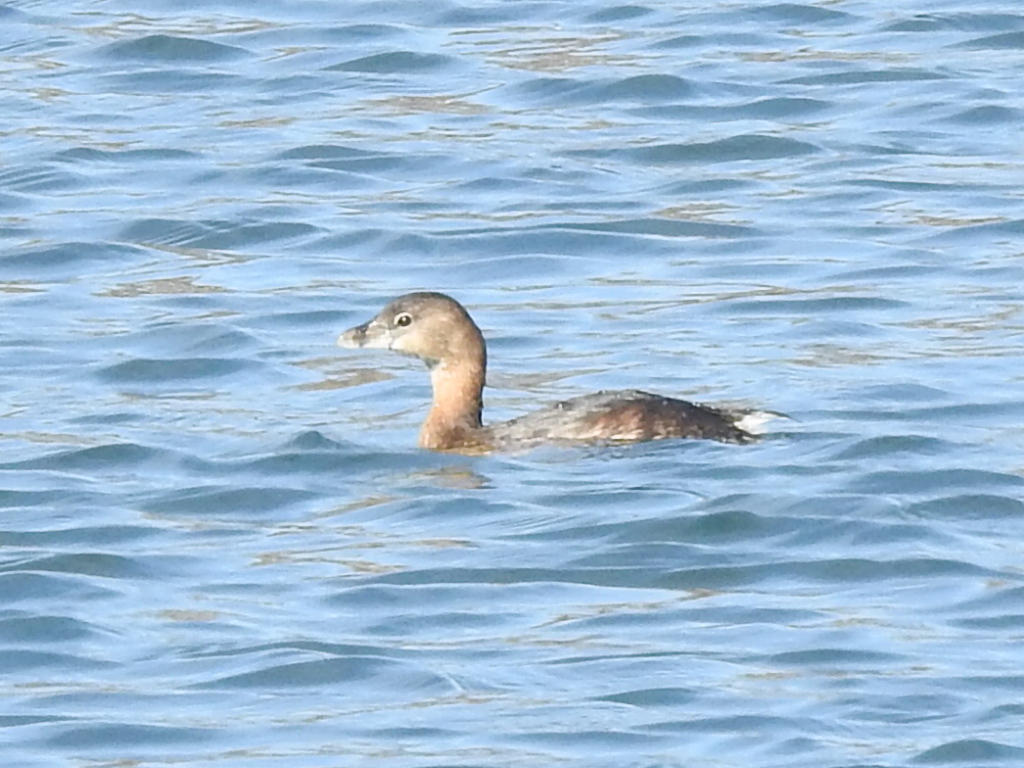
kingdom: Animalia
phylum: Chordata
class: Aves
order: Podicipediformes
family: Podicipedidae
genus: Podilymbus
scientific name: Podilymbus podiceps
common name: Pied-billed grebe
